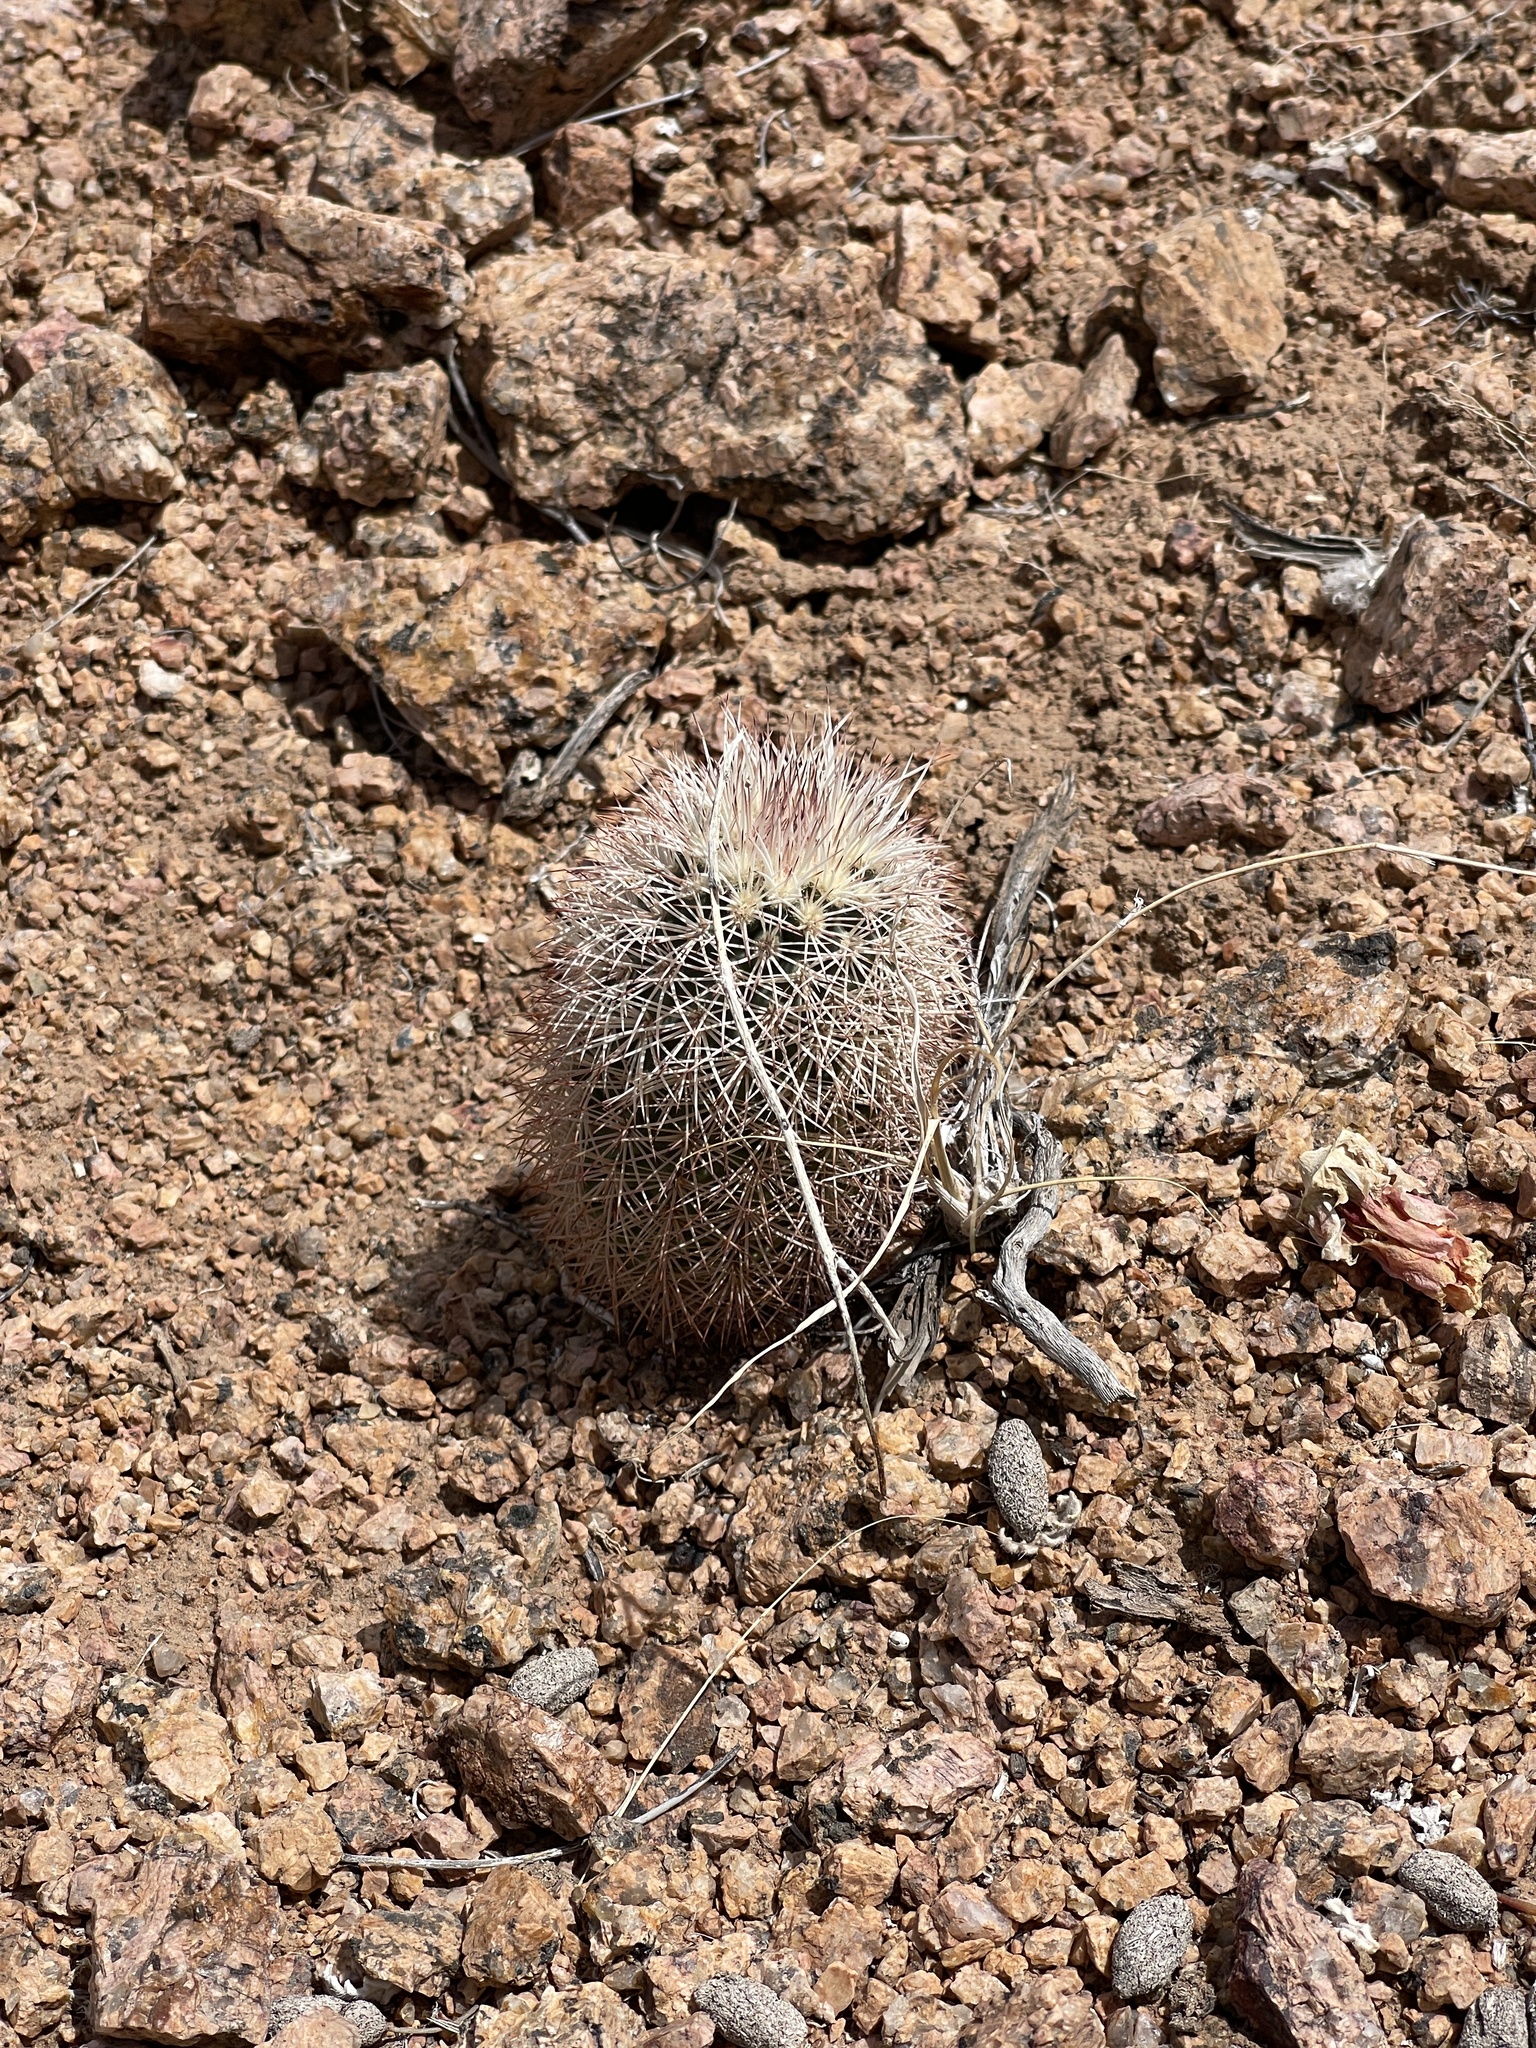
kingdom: Plantae
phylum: Tracheophyta
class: Magnoliopsida
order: Caryophyllales
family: Cactaceae
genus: Echinocereus
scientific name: Echinocereus dasyacanthus
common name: Spiny hedgehog cactus
